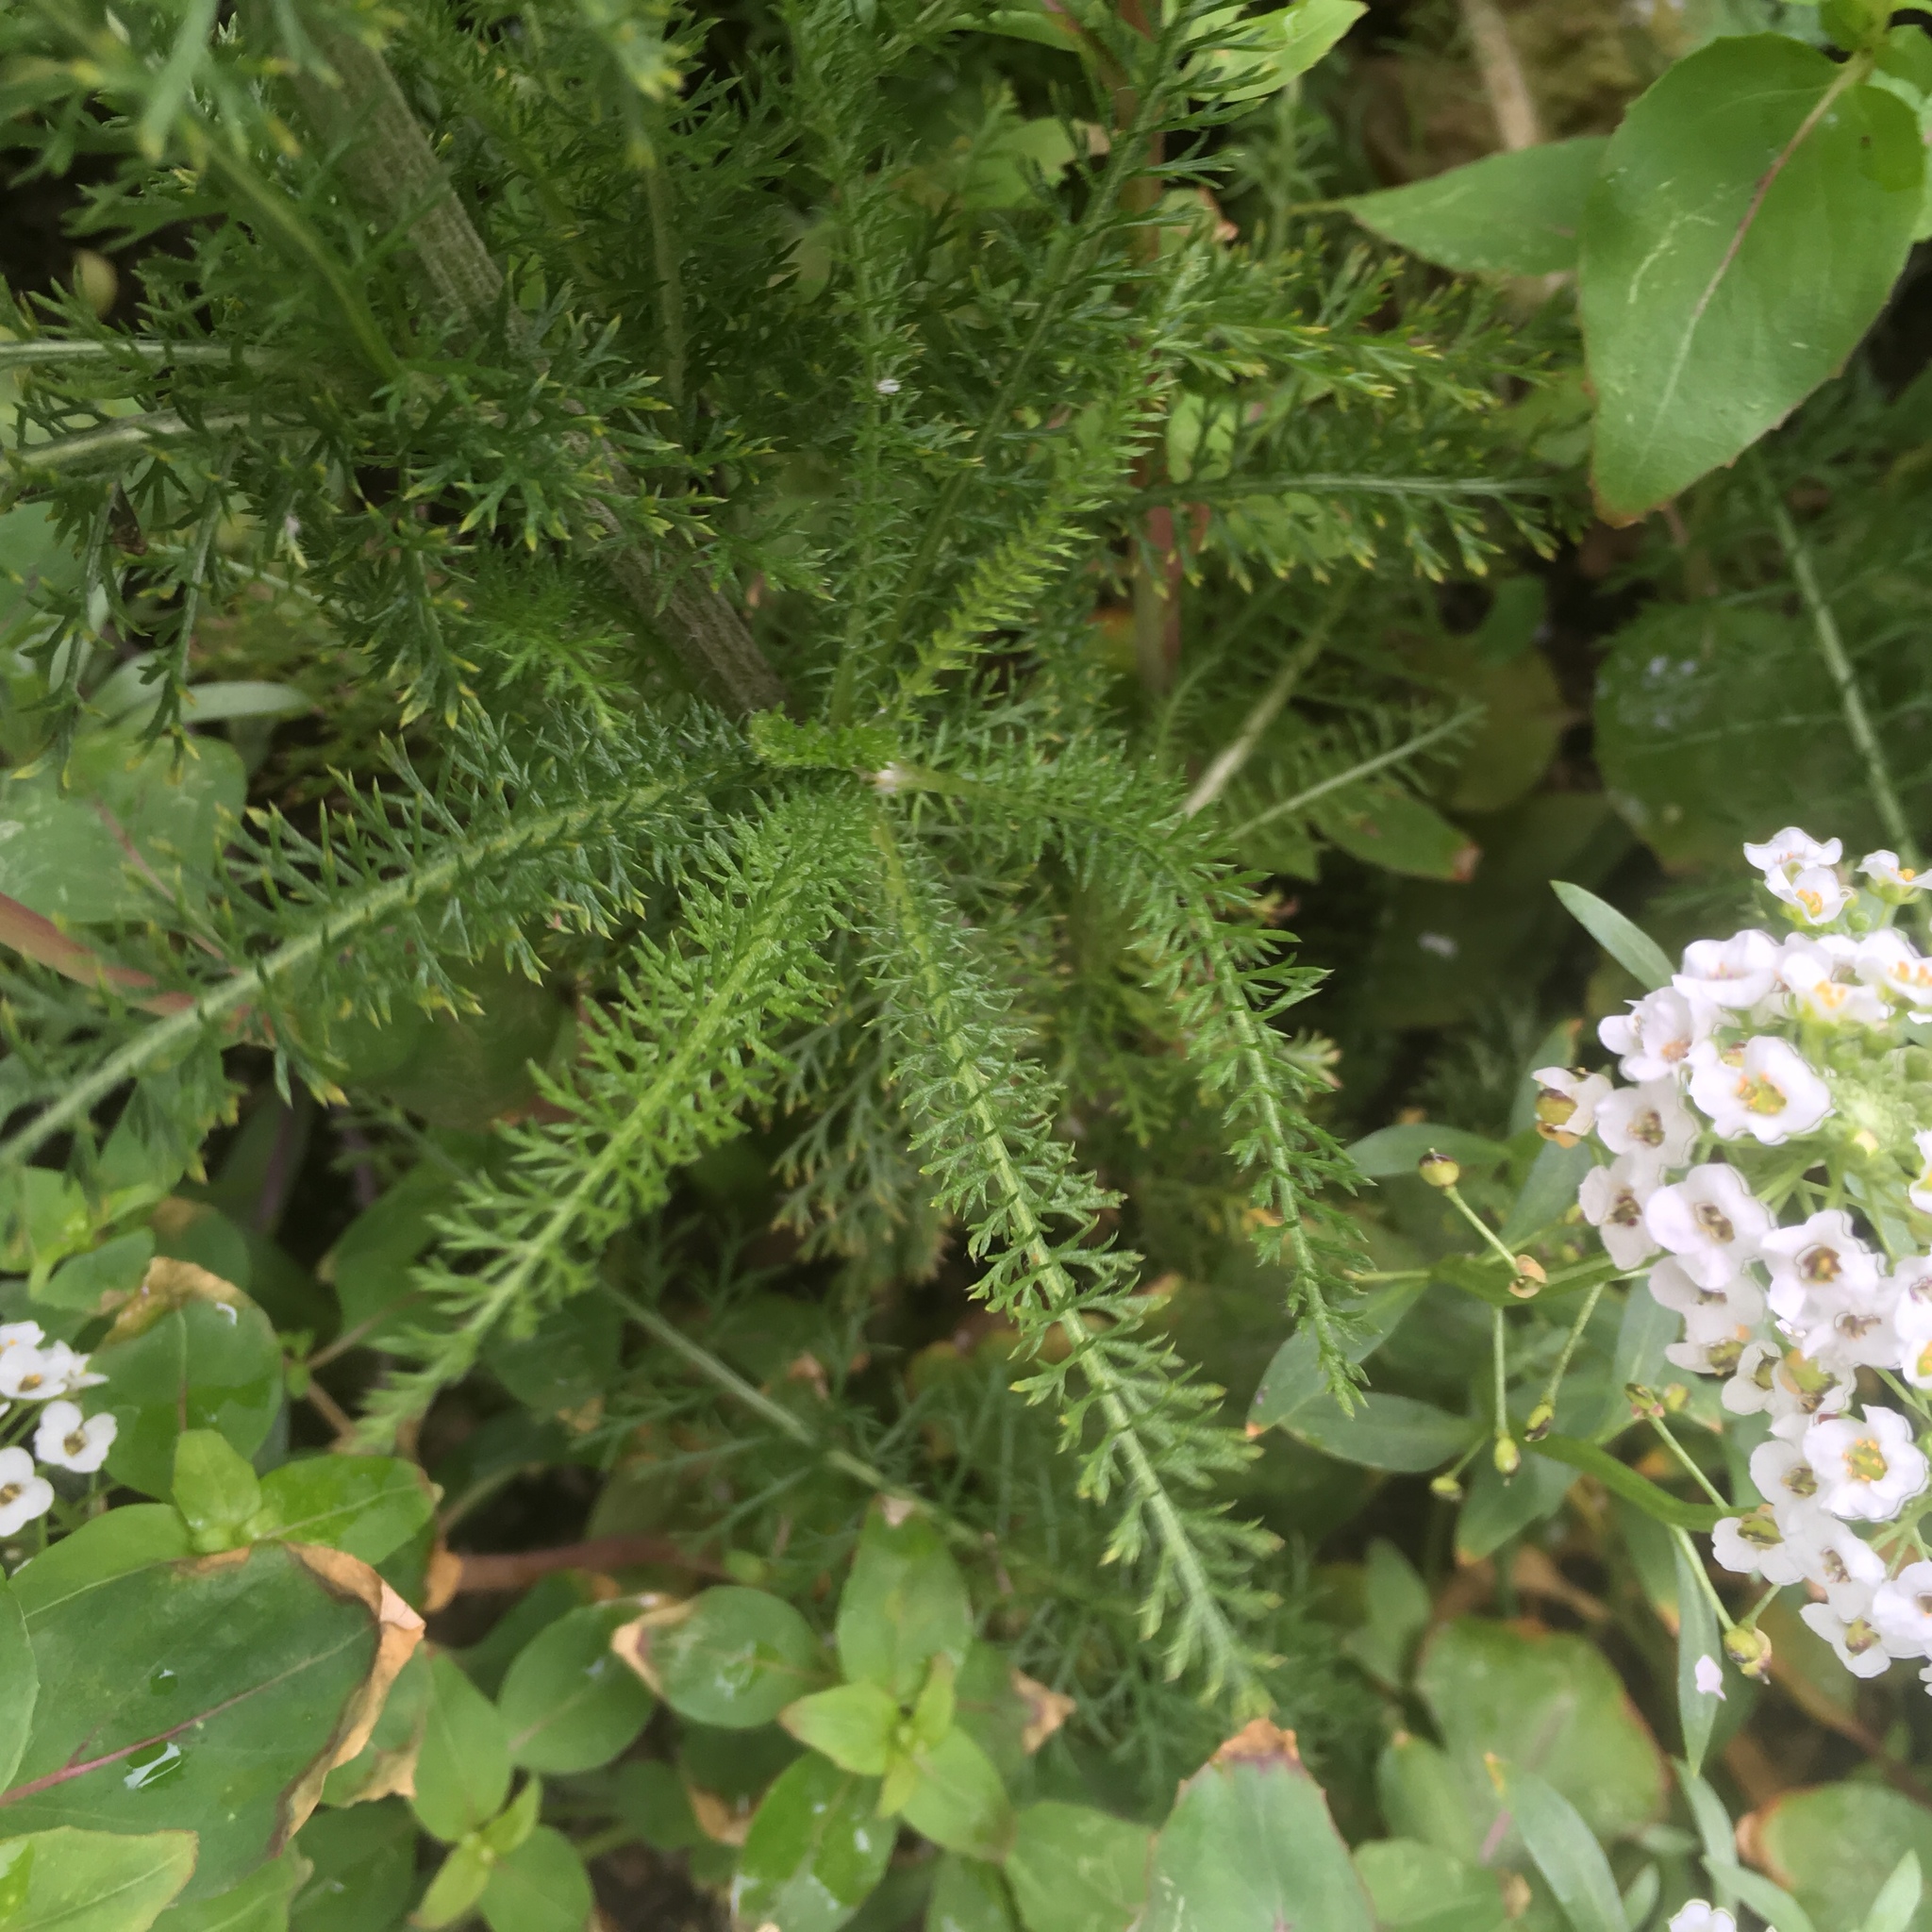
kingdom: Plantae
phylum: Tracheophyta
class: Magnoliopsida
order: Asterales
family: Asteraceae
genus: Achillea
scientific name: Achillea millefolium
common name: Yarrow
